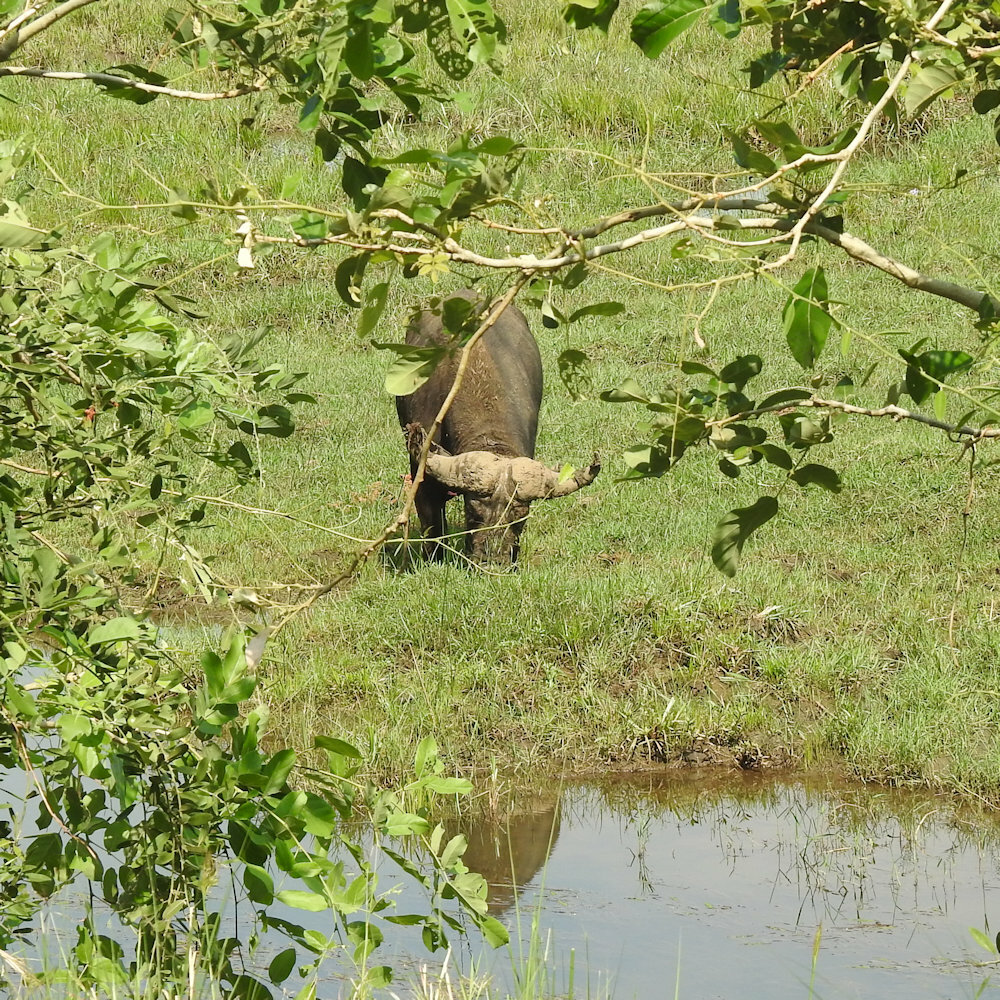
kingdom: Animalia
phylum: Chordata
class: Mammalia
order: Artiodactyla
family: Bovidae
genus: Syncerus
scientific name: Syncerus caffer
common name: African buffalo
